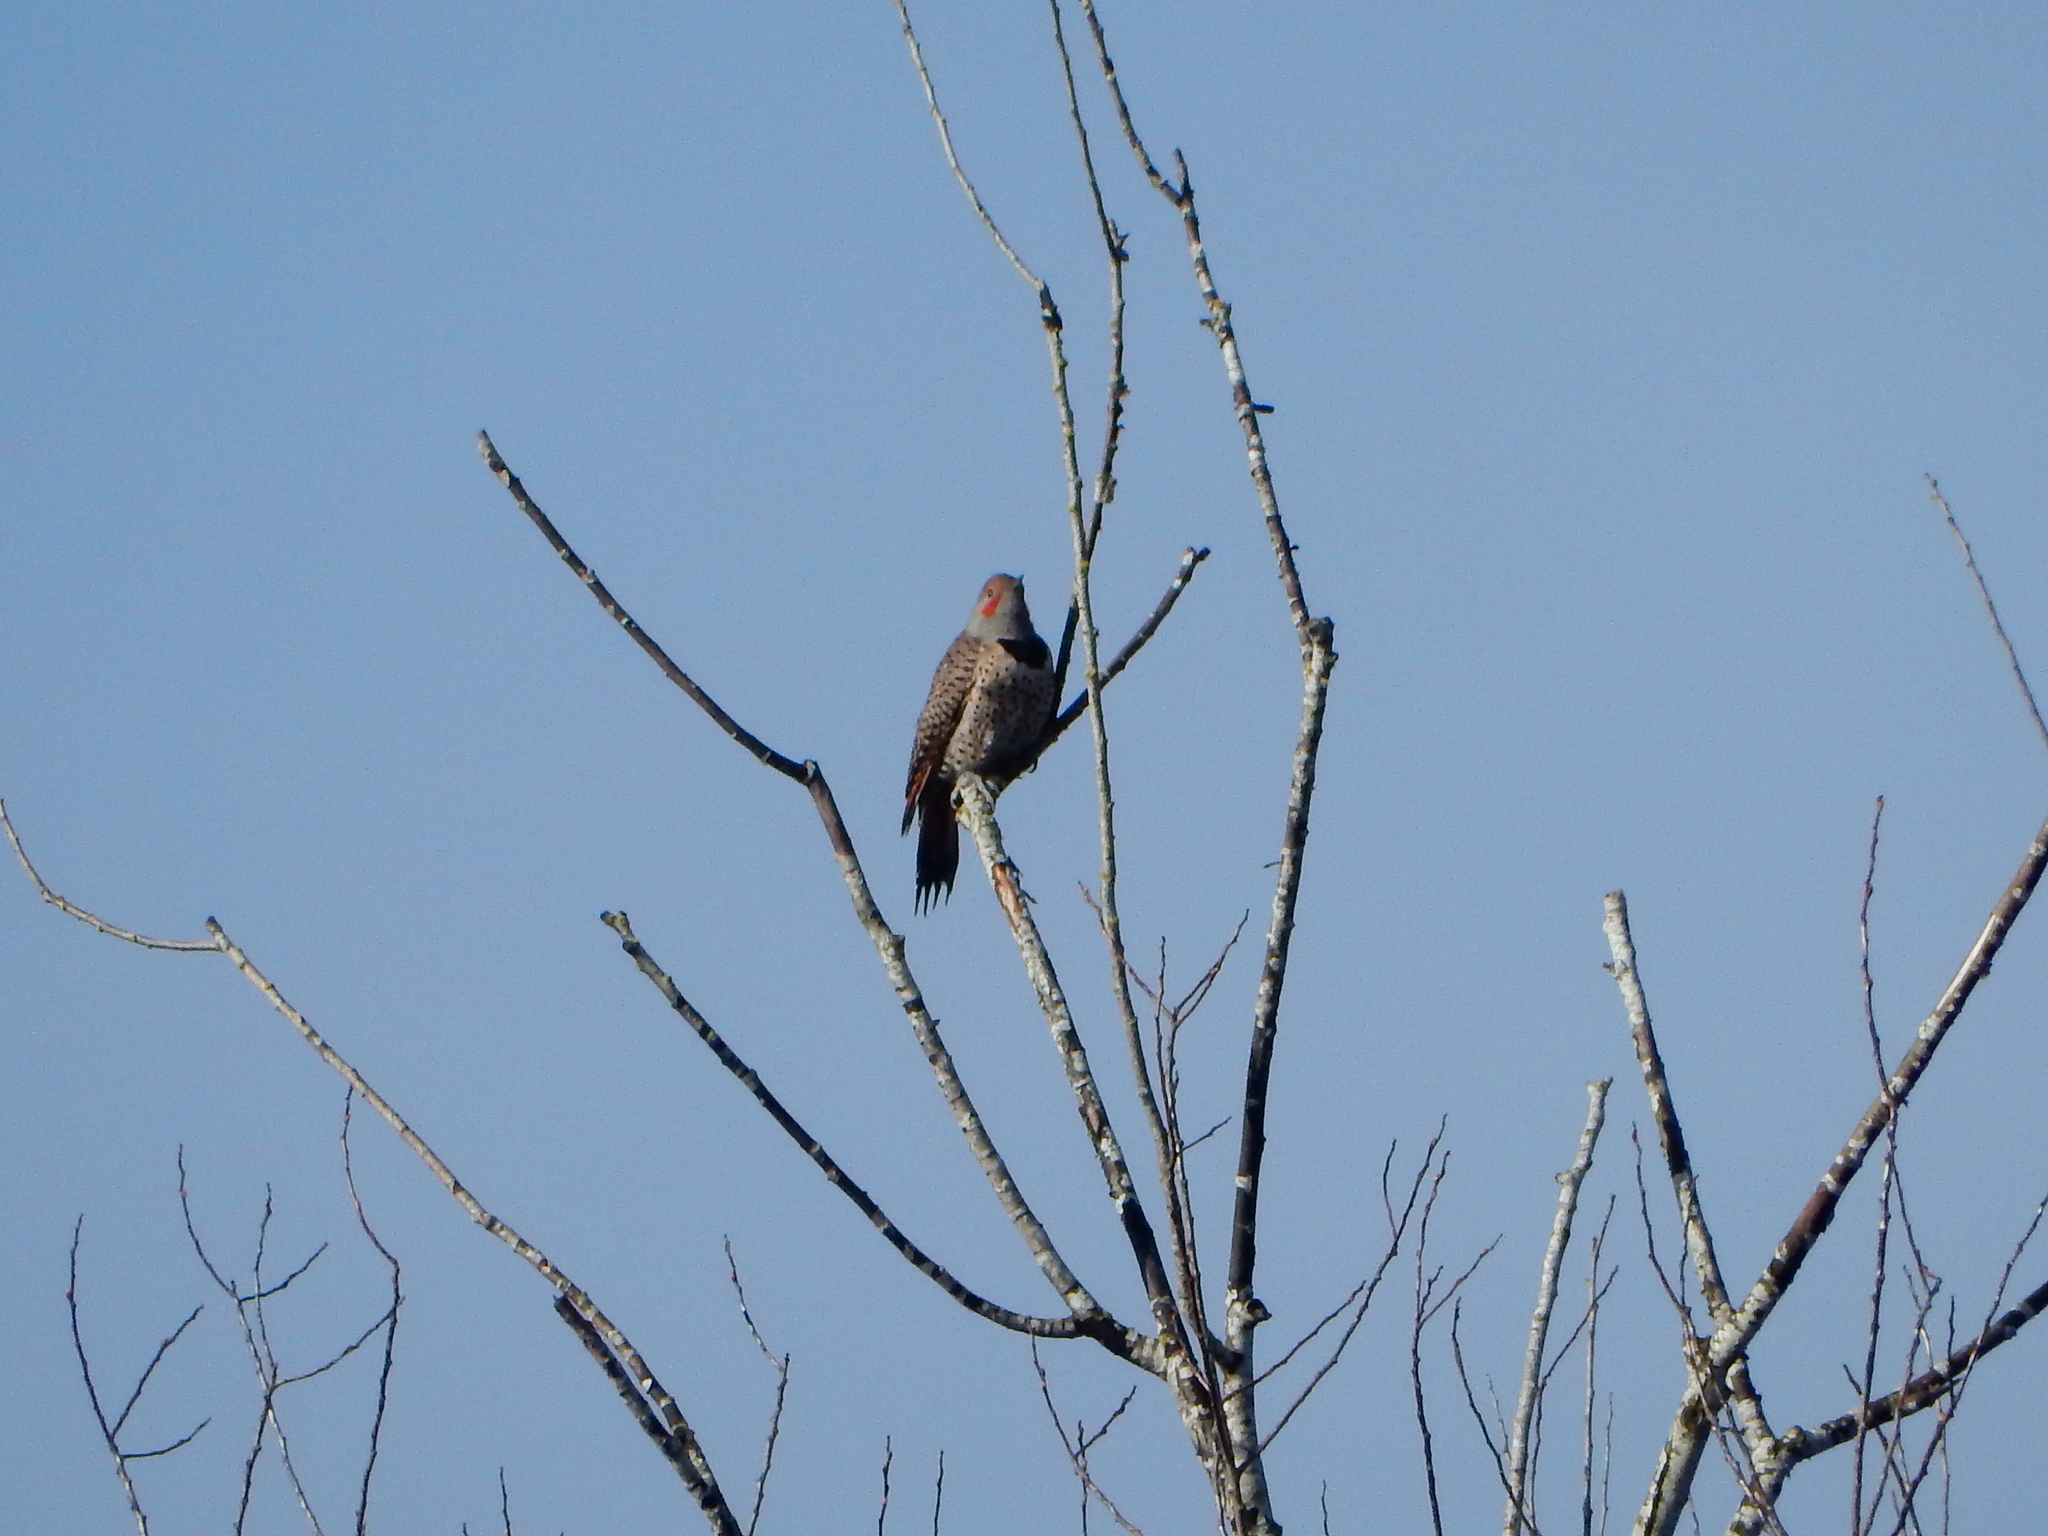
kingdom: Animalia
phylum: Chordata
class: Aves
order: Piciformes
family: Picidae
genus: Colaptes
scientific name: Colaptes auratus
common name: Northern flicker
